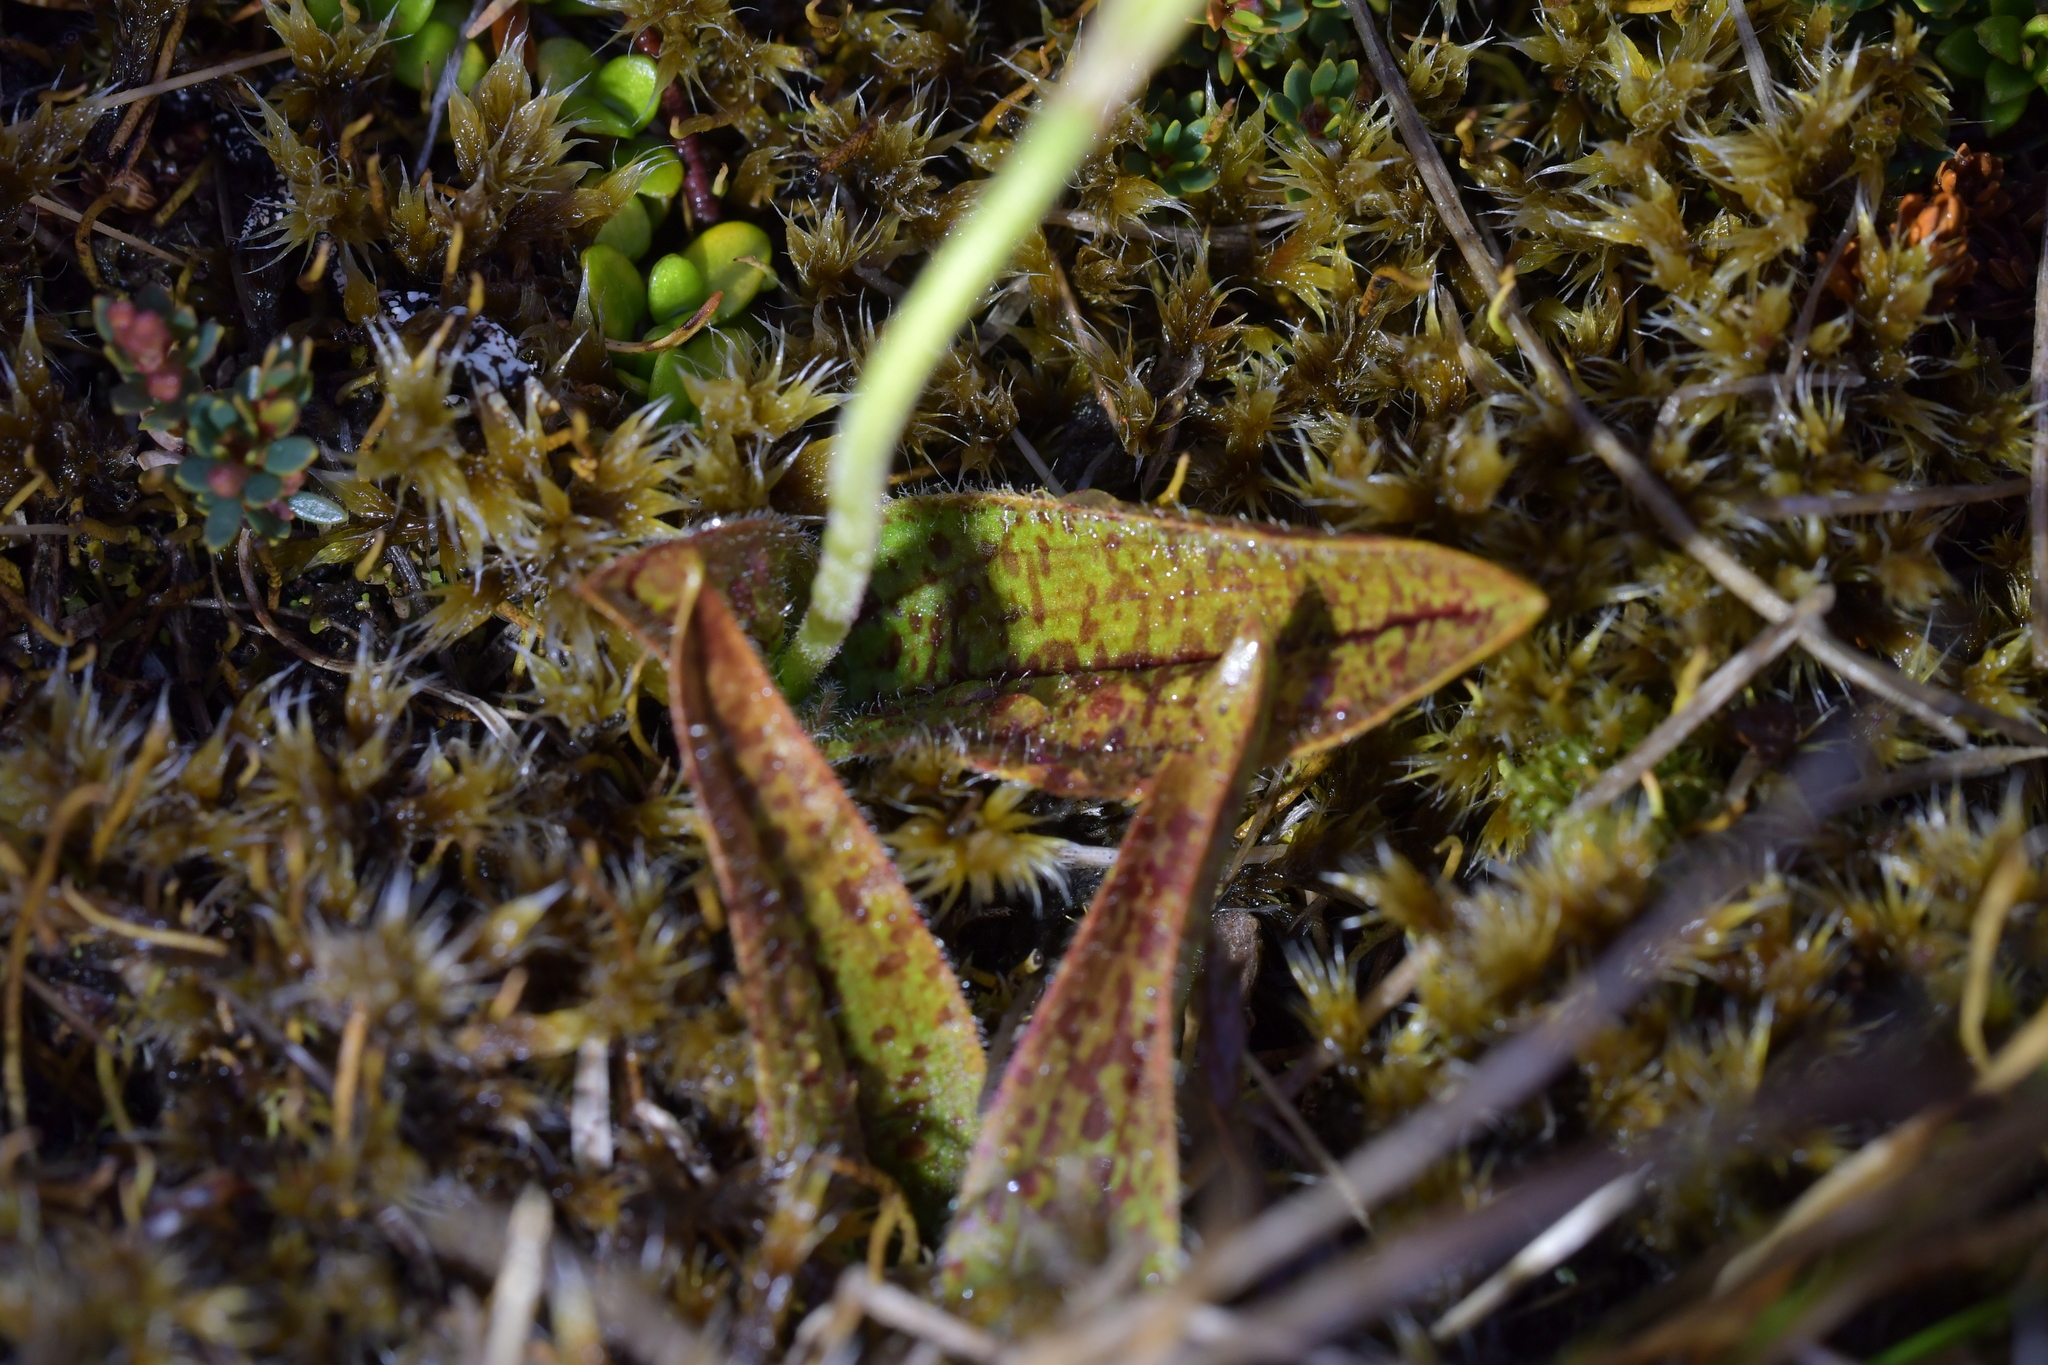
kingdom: Plantae
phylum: Tracheophyta
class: Liliopsida
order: Asparagales
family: Orchidaceae
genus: Aporostylis
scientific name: Aporostylis bifolia
